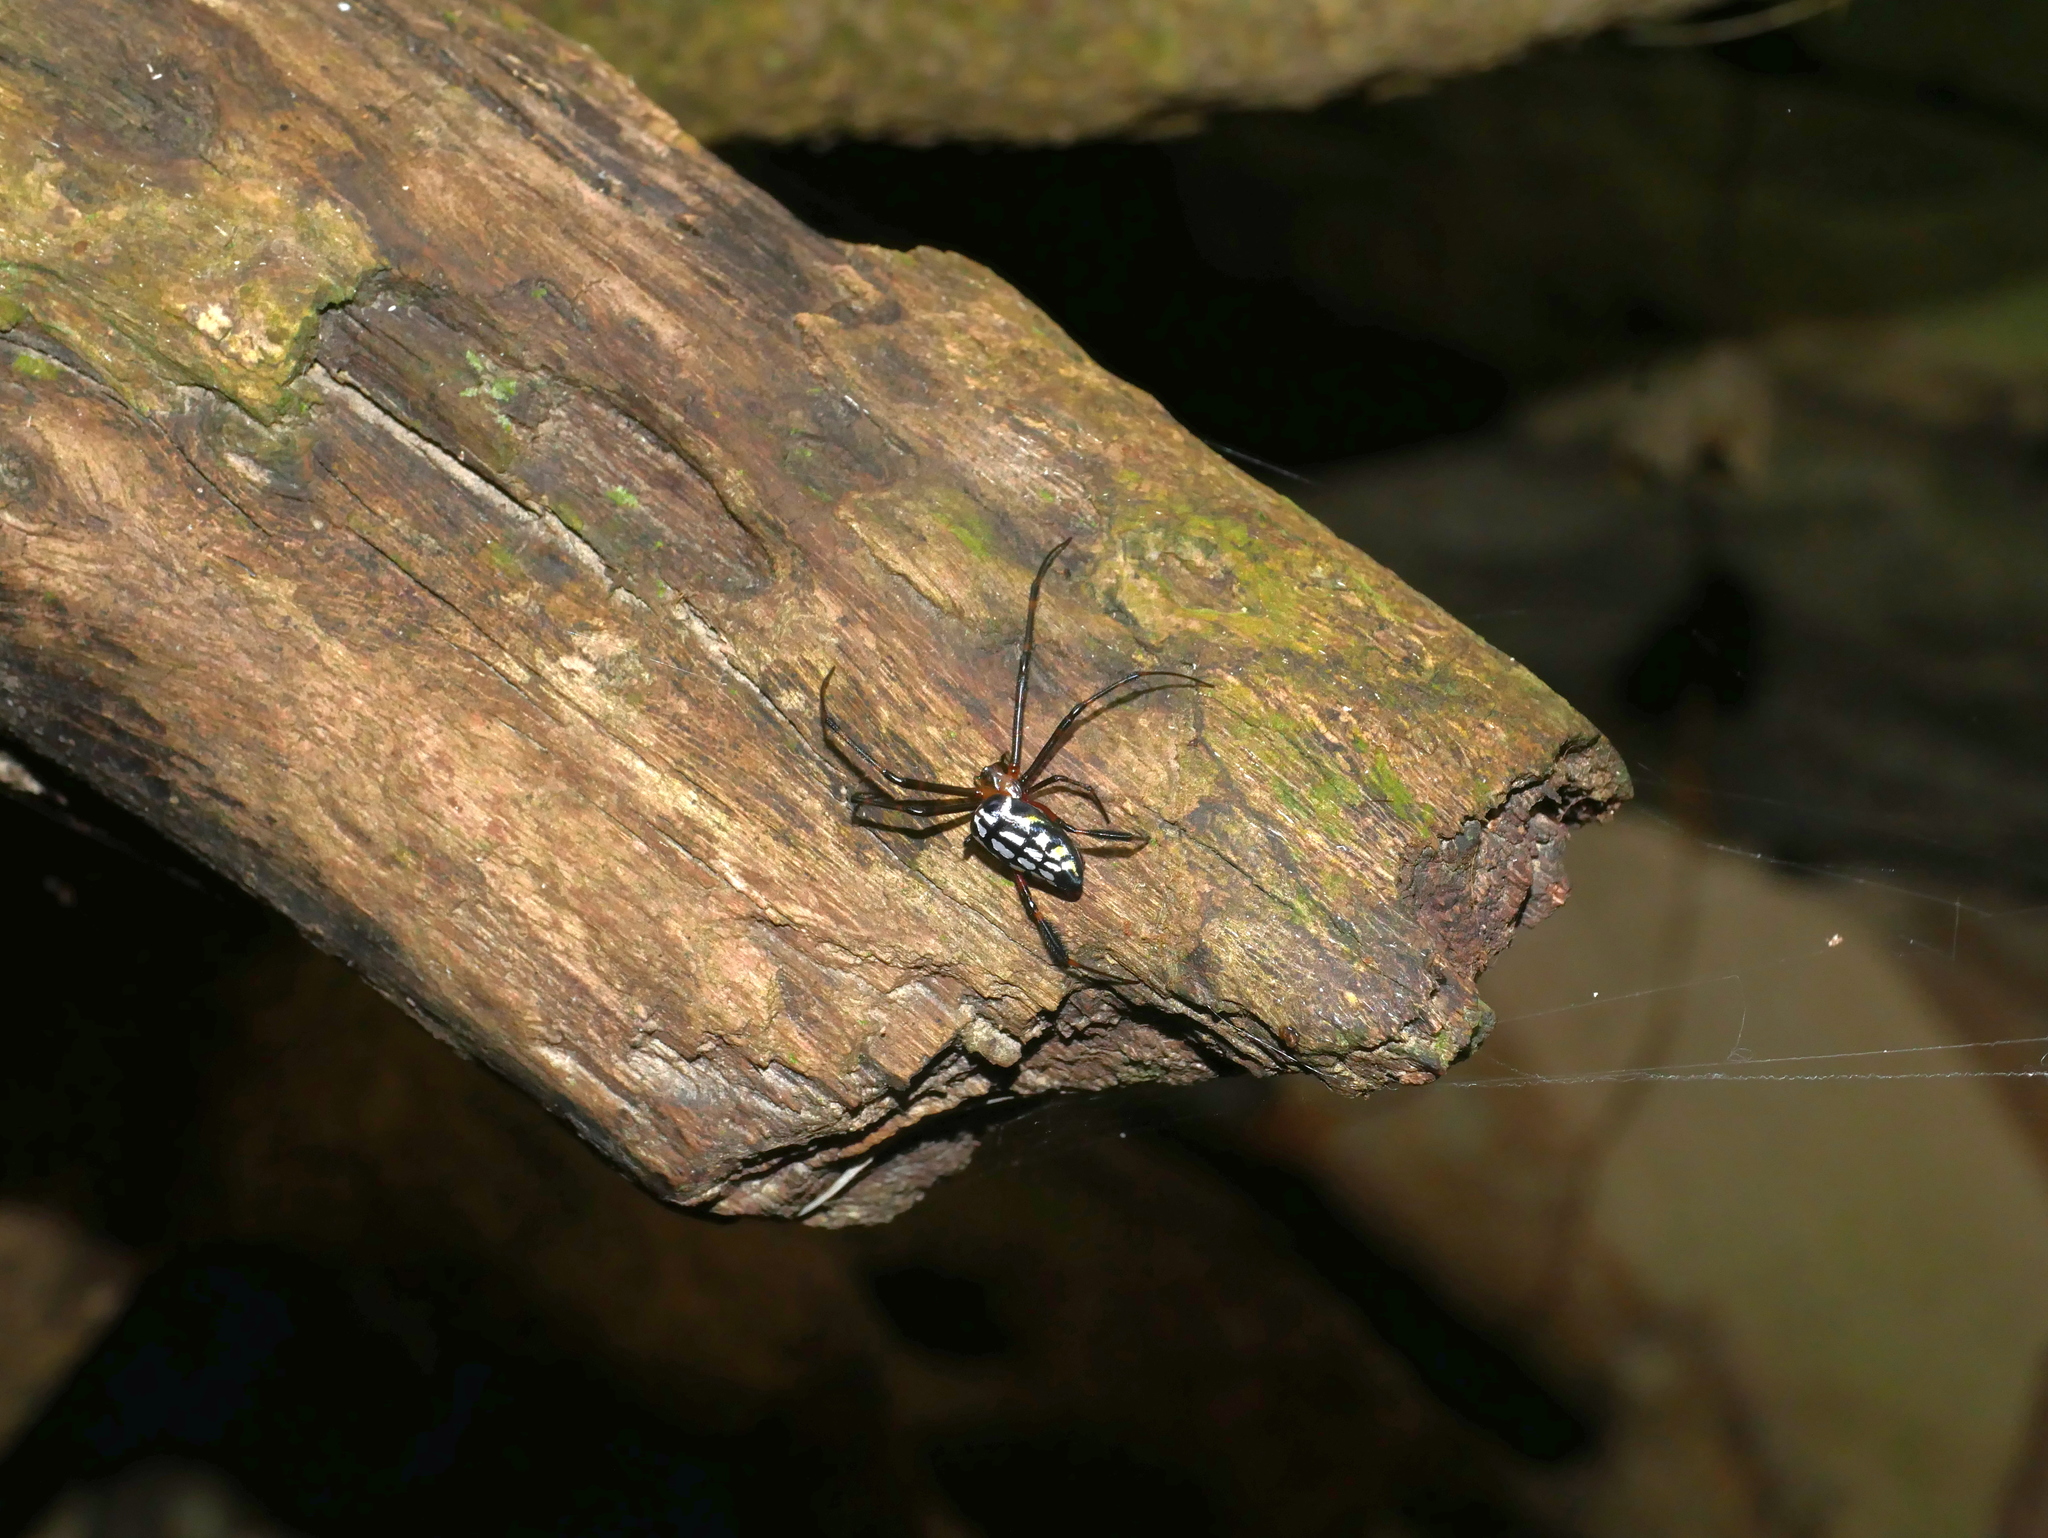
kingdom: Animalia
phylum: Arthropoda
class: Arachnida
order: Araneae
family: Tetragnathidae
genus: Leucauge
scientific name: Leucauge tessellata
